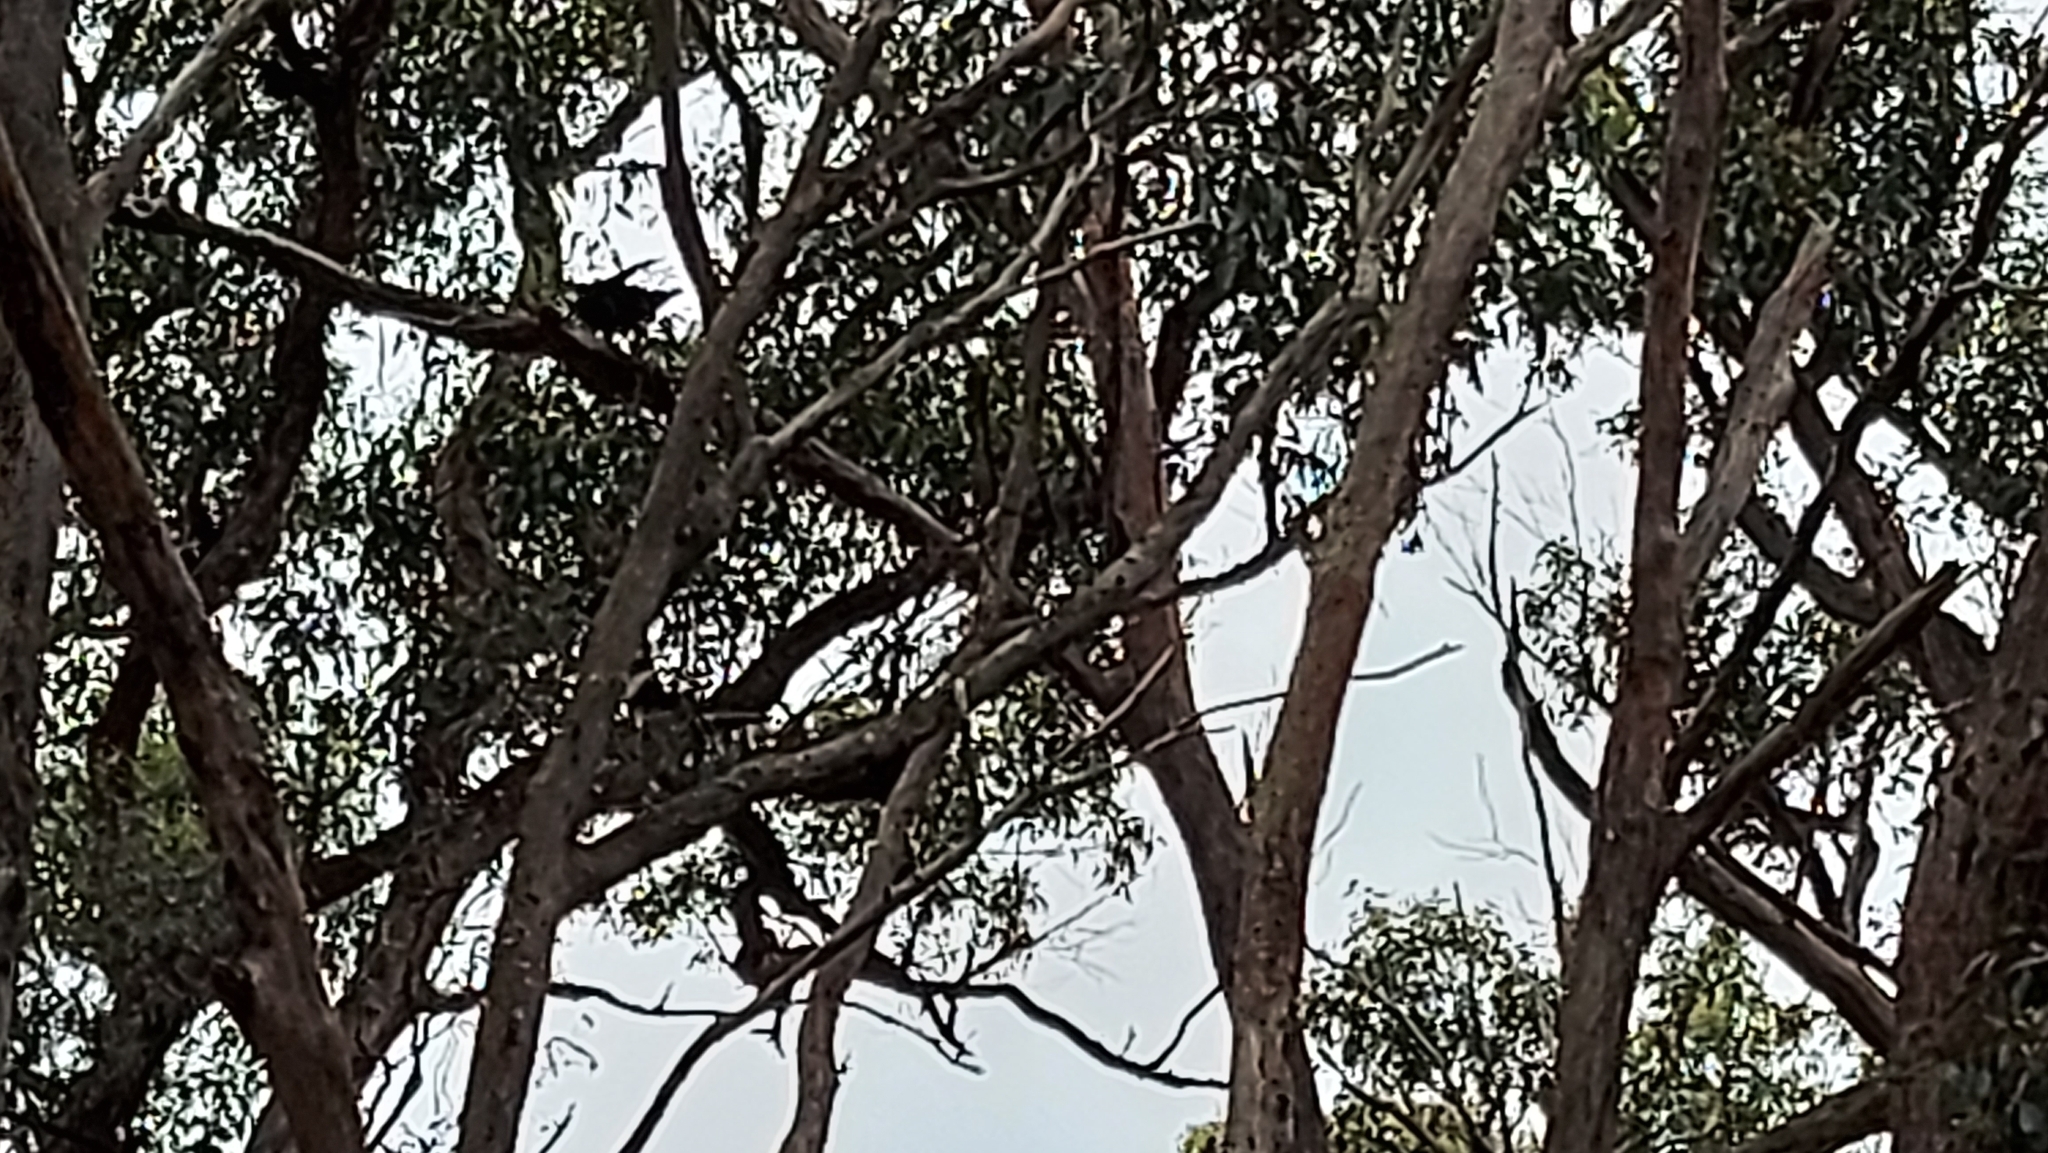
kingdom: Animalia
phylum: Chordata
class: Aves
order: Passeriformes
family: Corcoracidae
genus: Corcorax
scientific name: Corcorax melanoramphos
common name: White-winged chough
